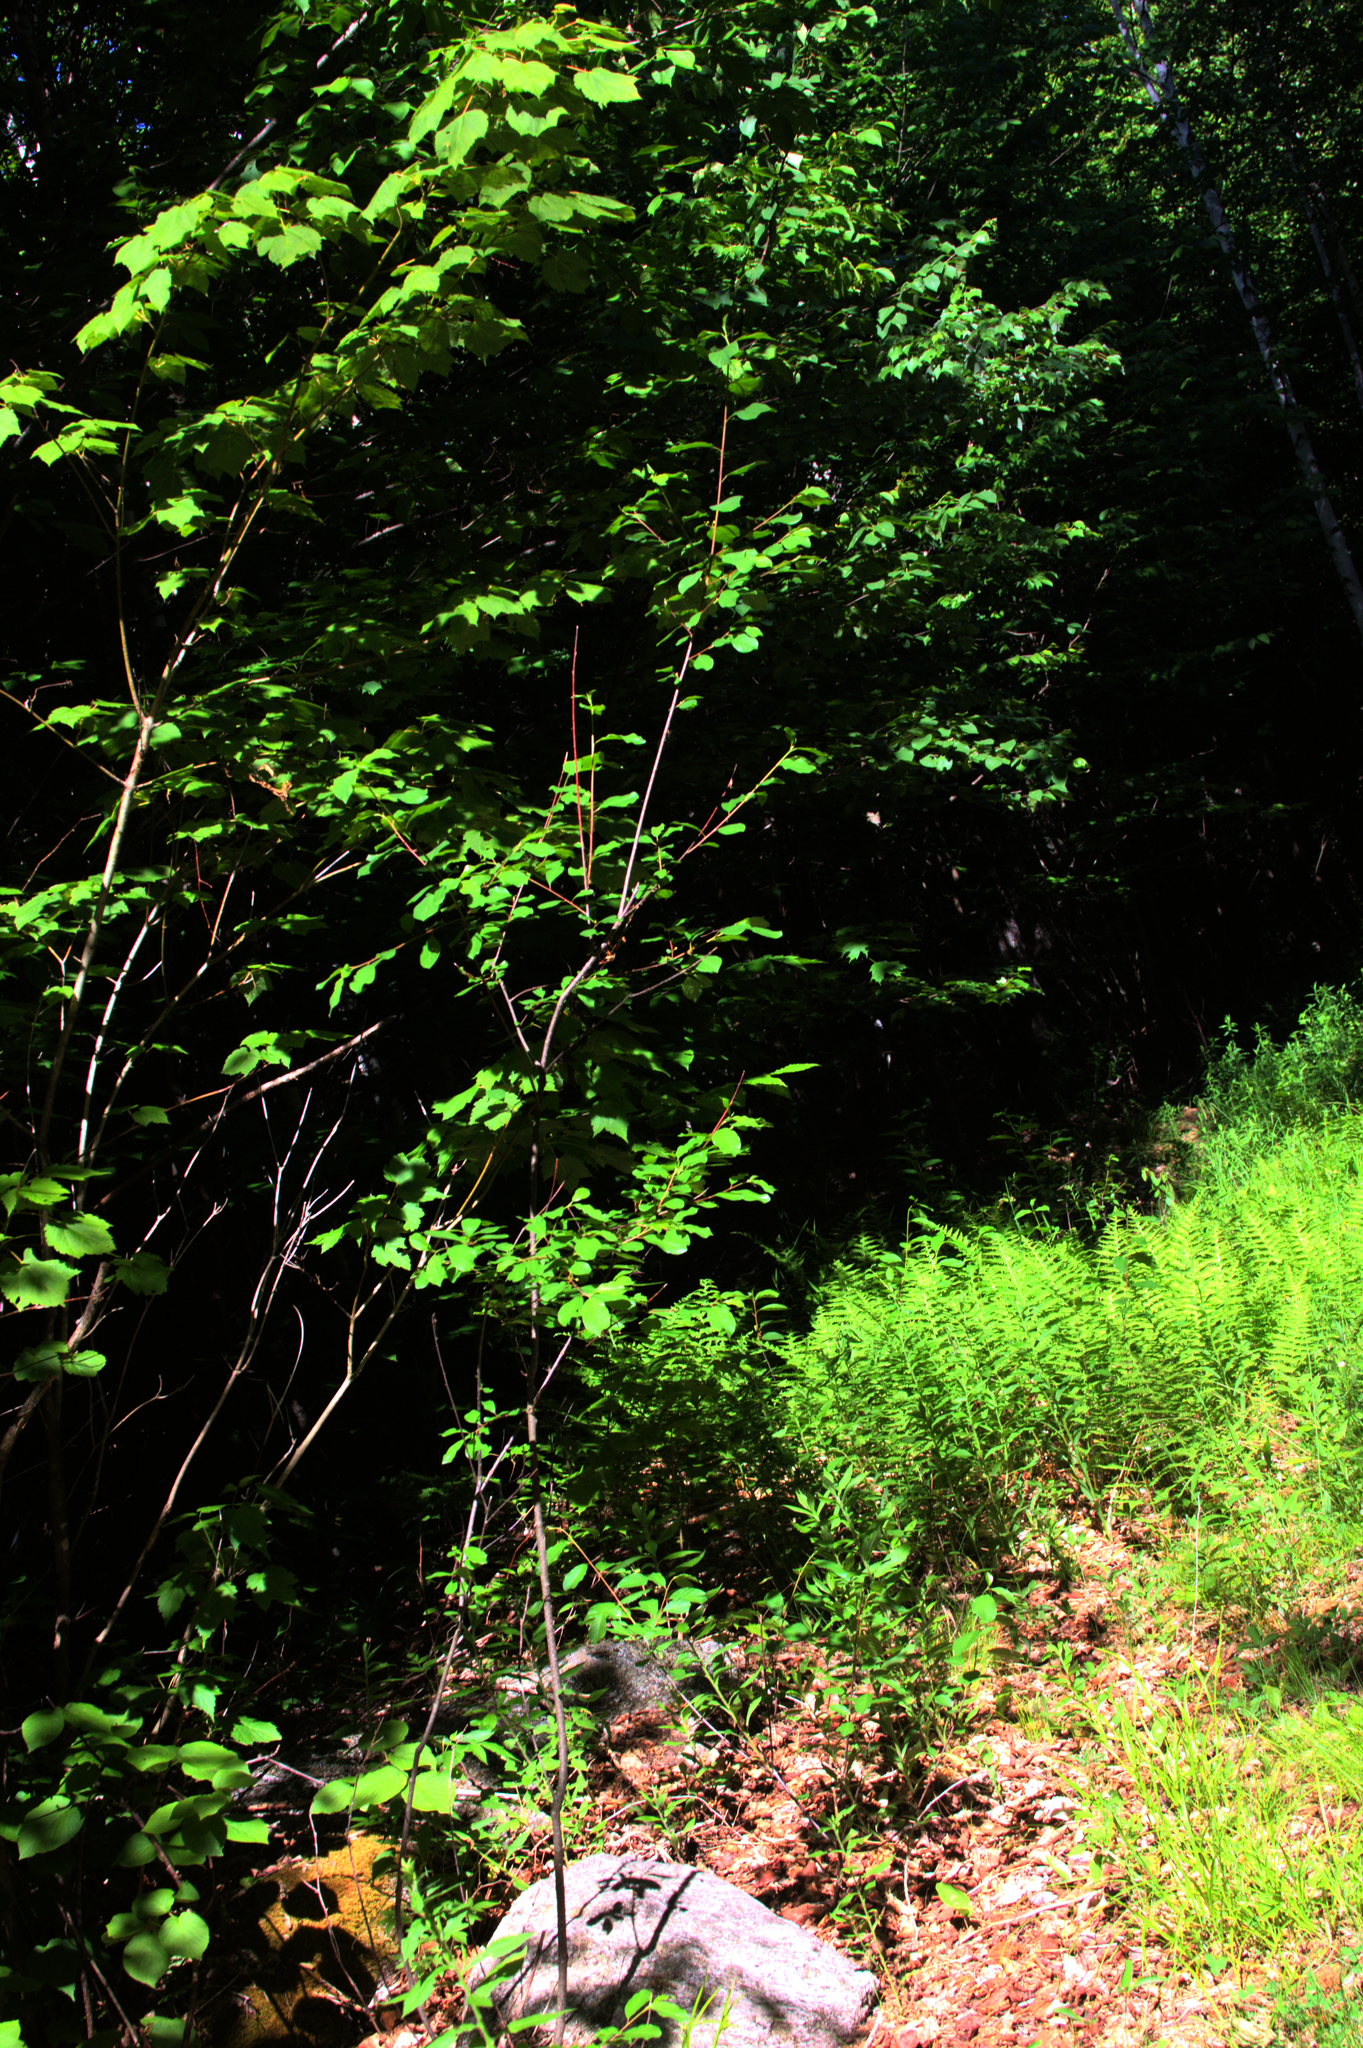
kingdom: Plantae
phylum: Tracheophyta
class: Magnoliopsida
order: Rosales
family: Rhamnaceae
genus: Frangula
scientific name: Frangula alnus
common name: Alder buckthorn
